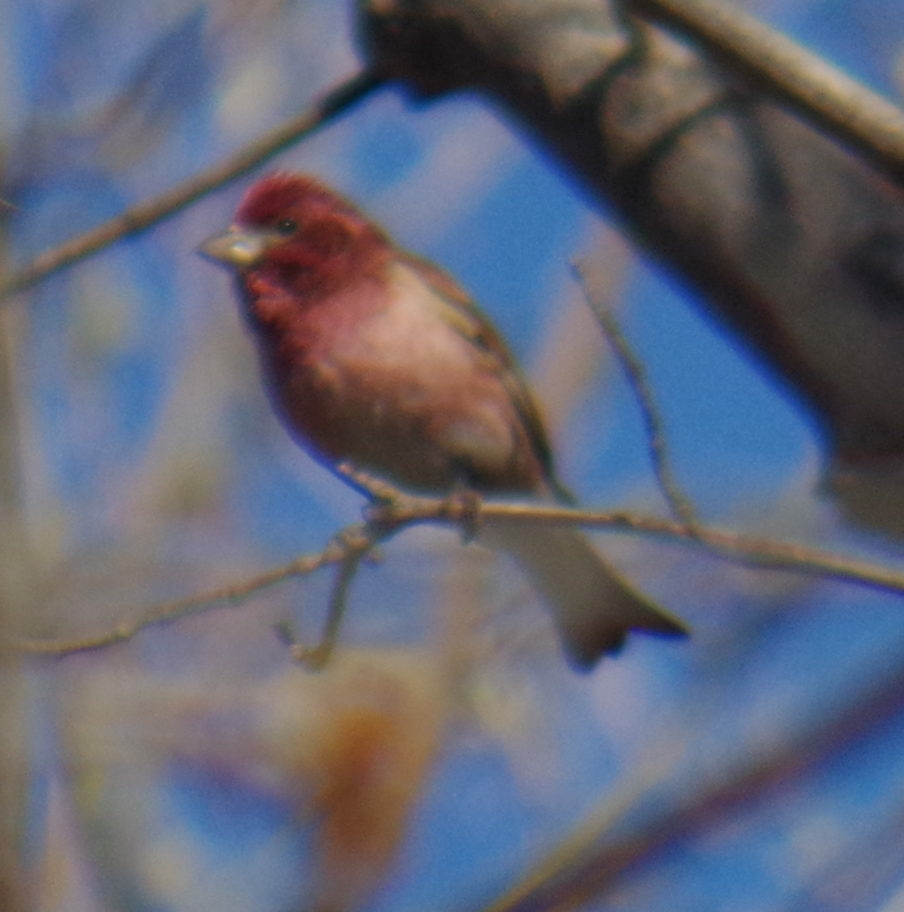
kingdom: Animalia
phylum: Chordata
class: Aves
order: Passeriformes
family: Fringillidae
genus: Haemorhous
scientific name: Haemorhous purpureus
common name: Purple finch
